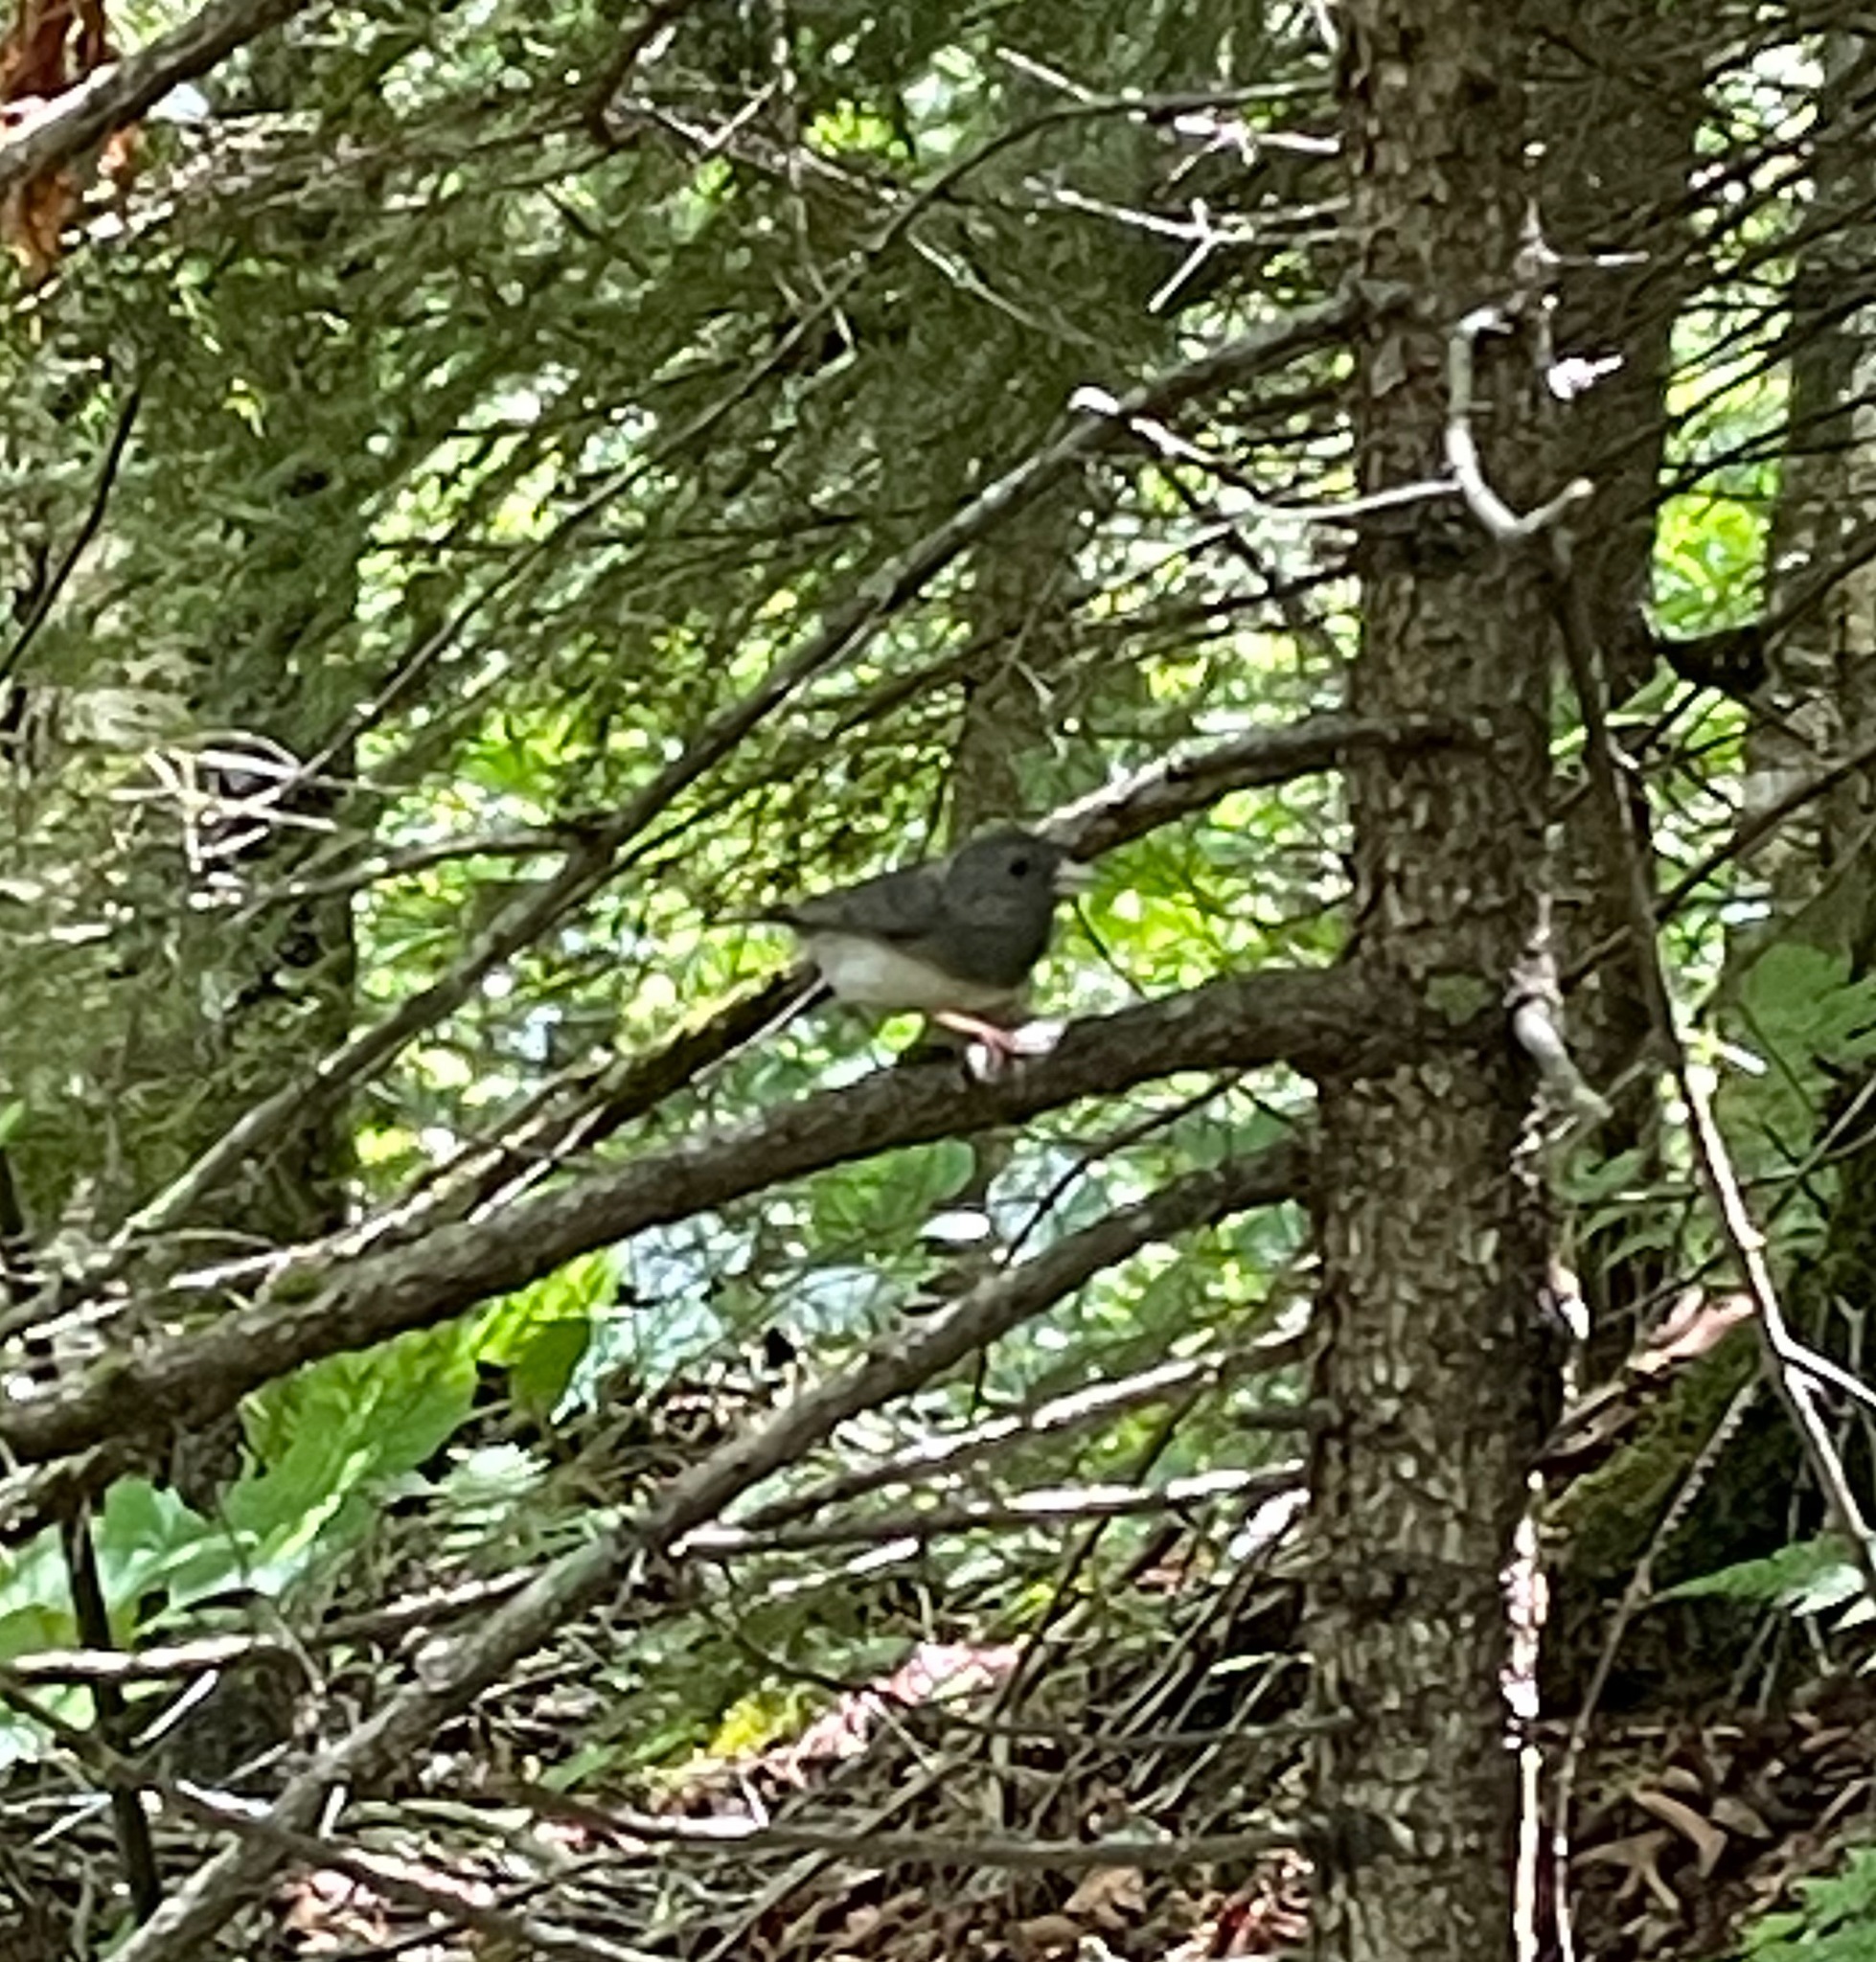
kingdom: Animalia
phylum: Chordata
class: Aves
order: Passeriformes
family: Passerellidae
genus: Junco
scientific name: Junco hyemalis
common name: Dark-eyed junco
